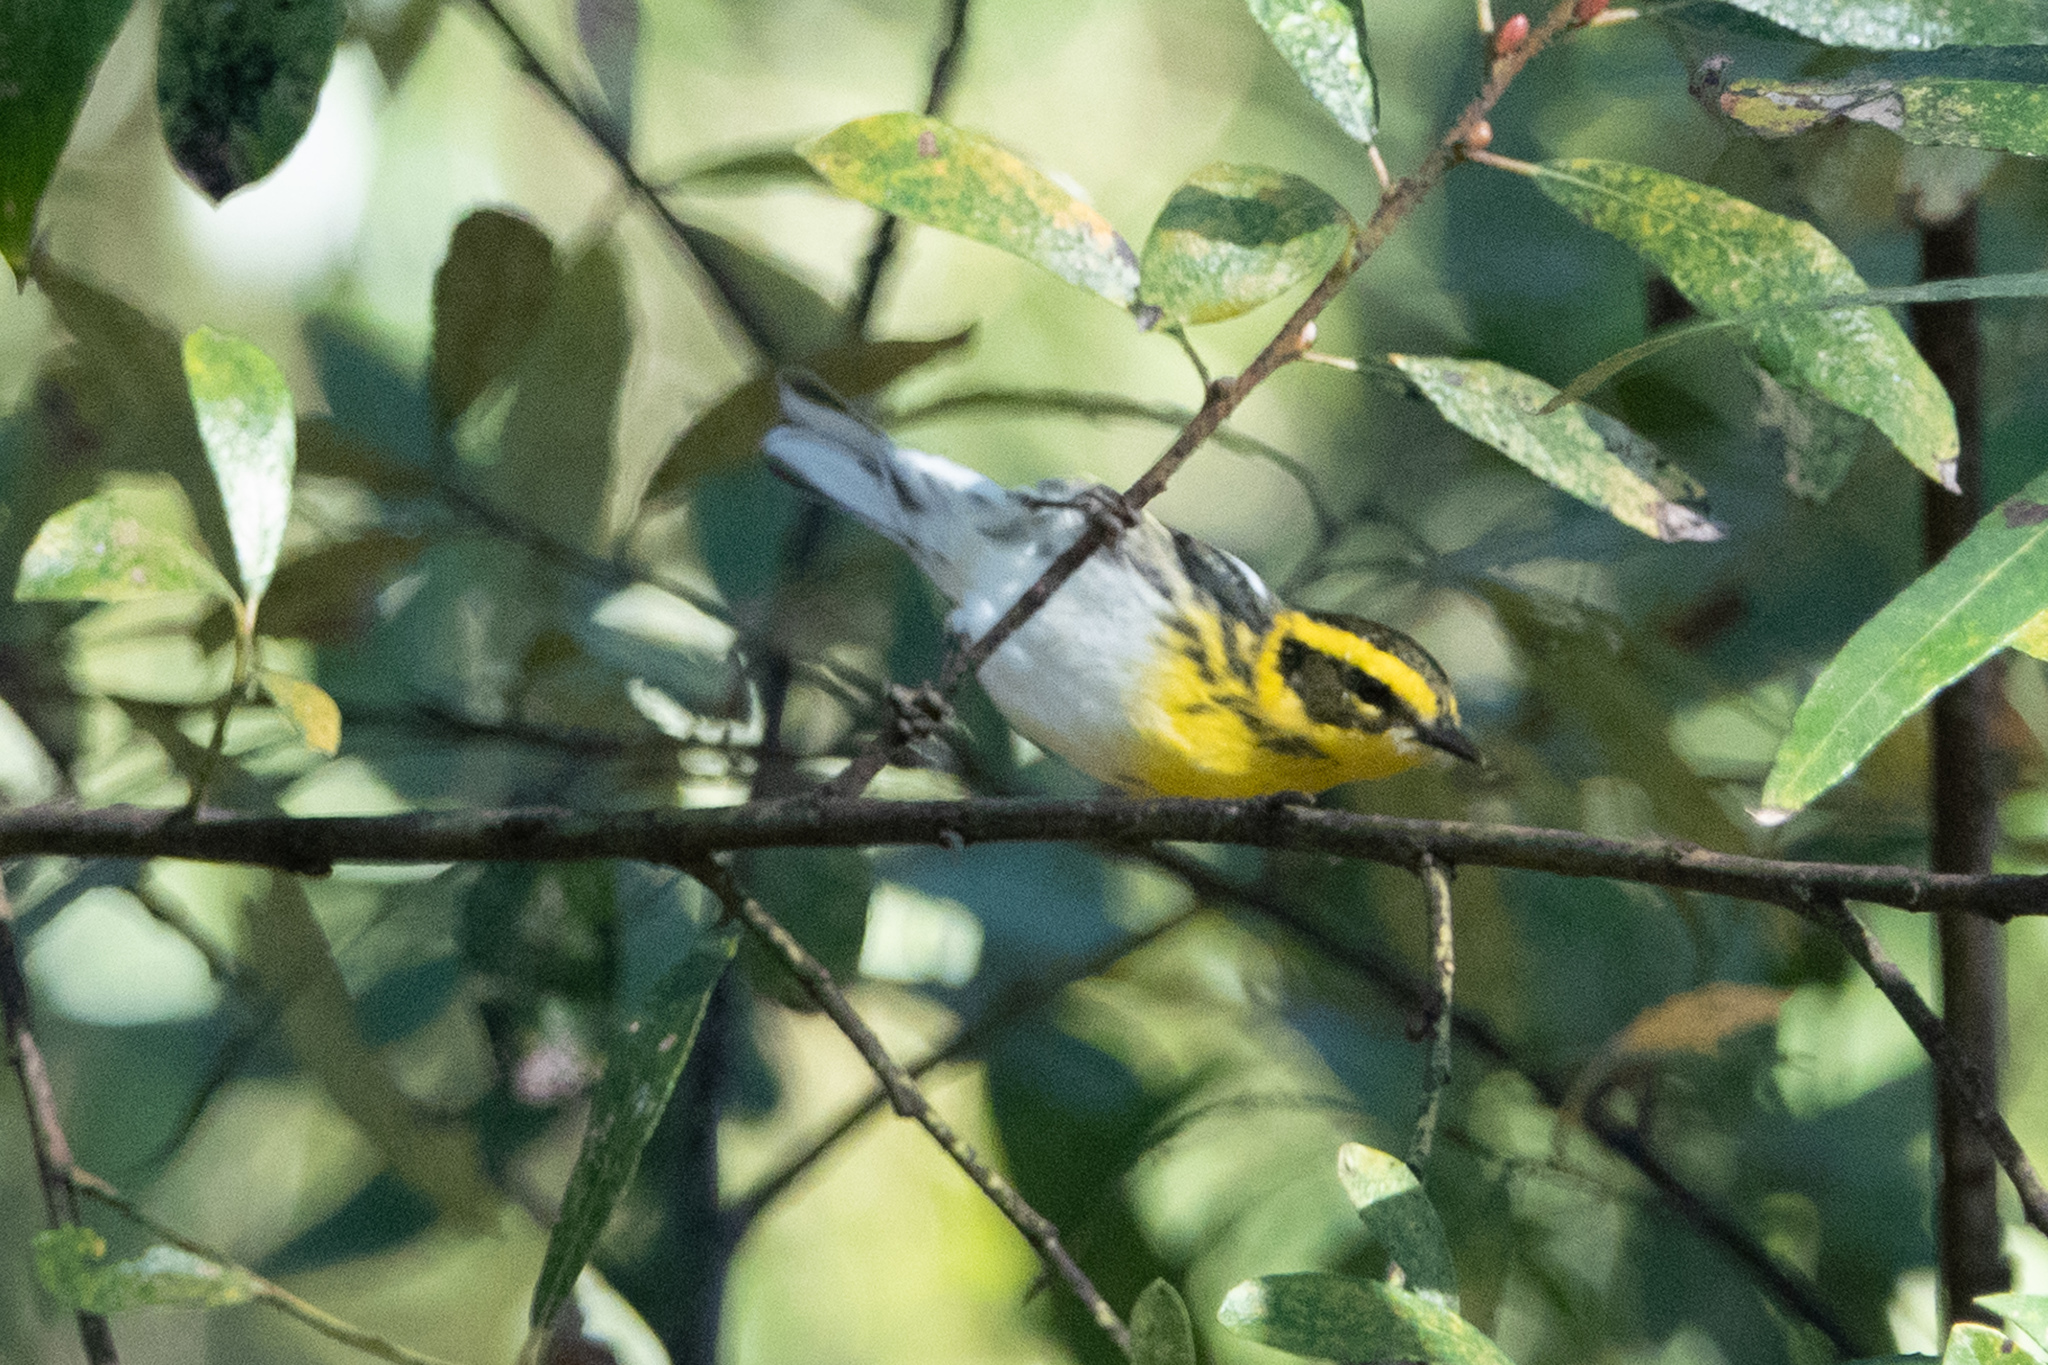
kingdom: Animalia
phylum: Chordata
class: Aves
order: Passeriformes
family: Parulidae
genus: Setophaga
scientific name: Setophaga townsendi
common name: Townsend's warbler
